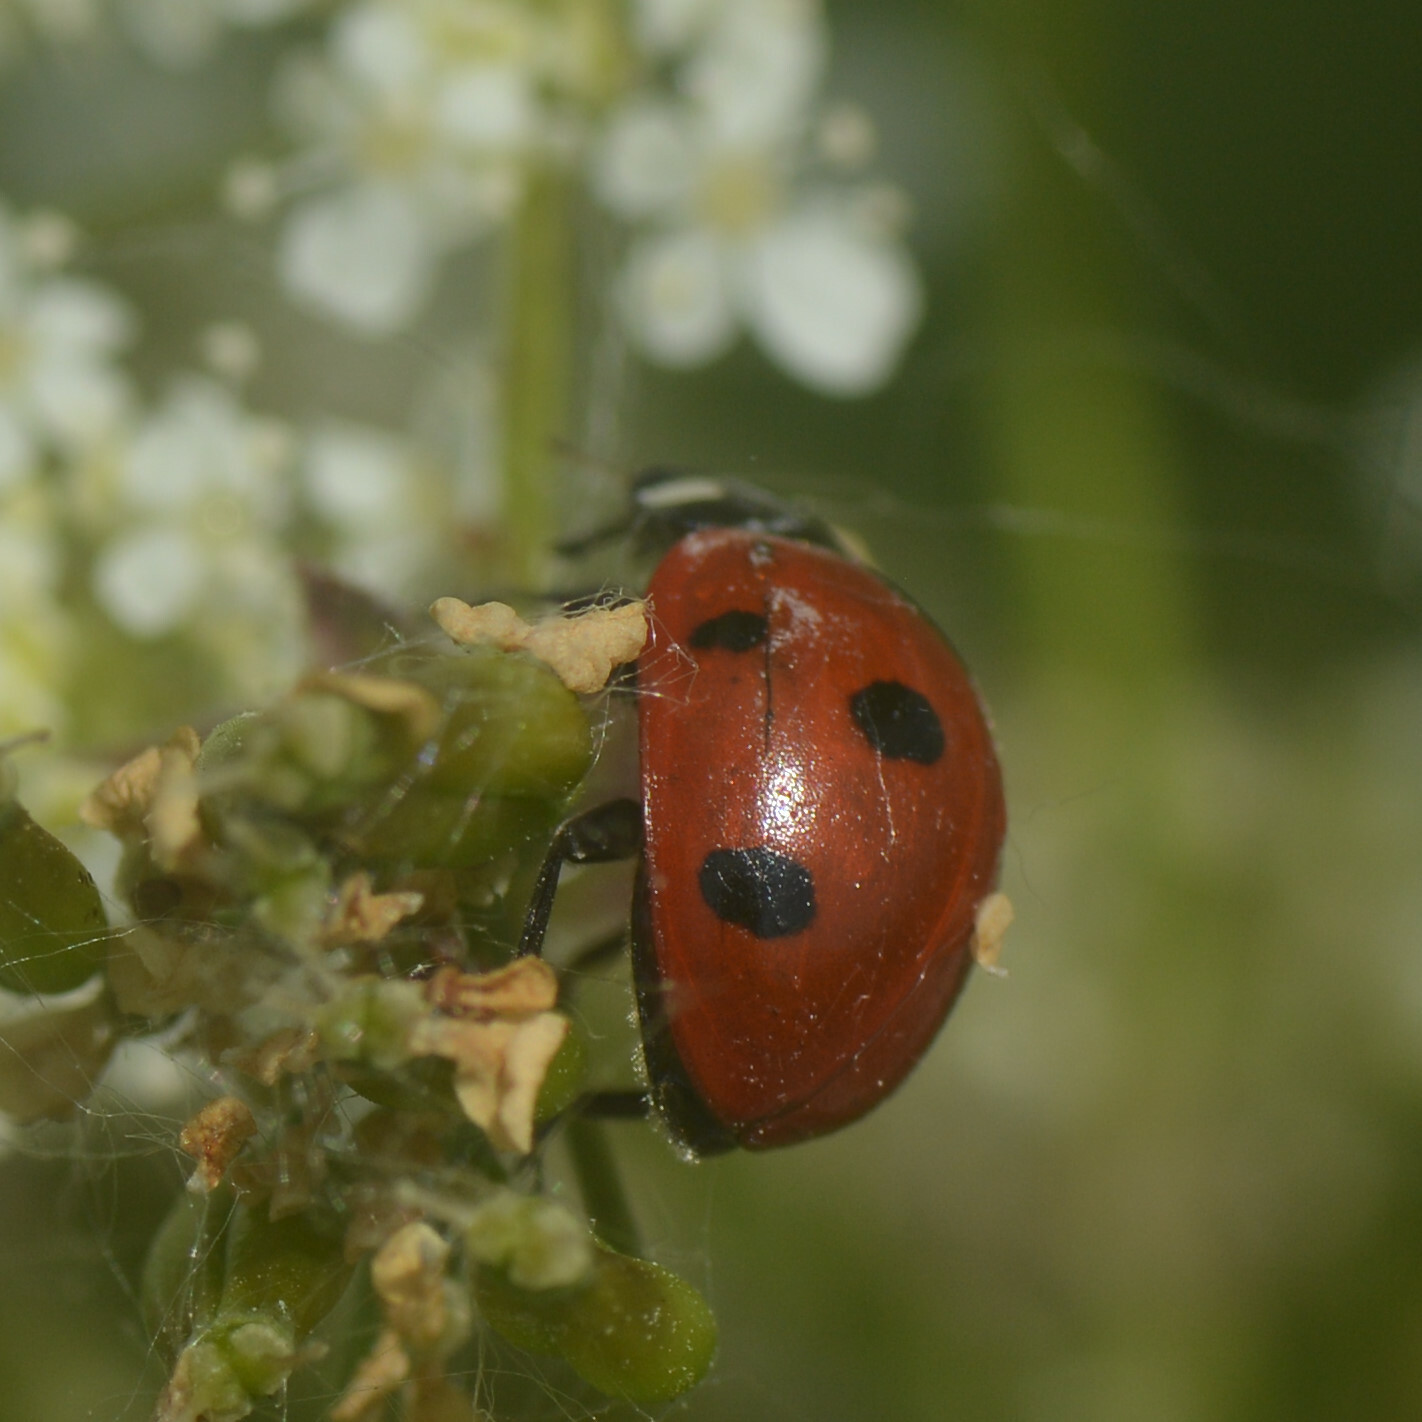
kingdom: Animalia
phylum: Arthropoda
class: Insecta
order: Coleoptera
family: Coccinellidae
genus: Coccinella
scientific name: Coccinella septempunctata
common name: Sevenspotted lady beetle
